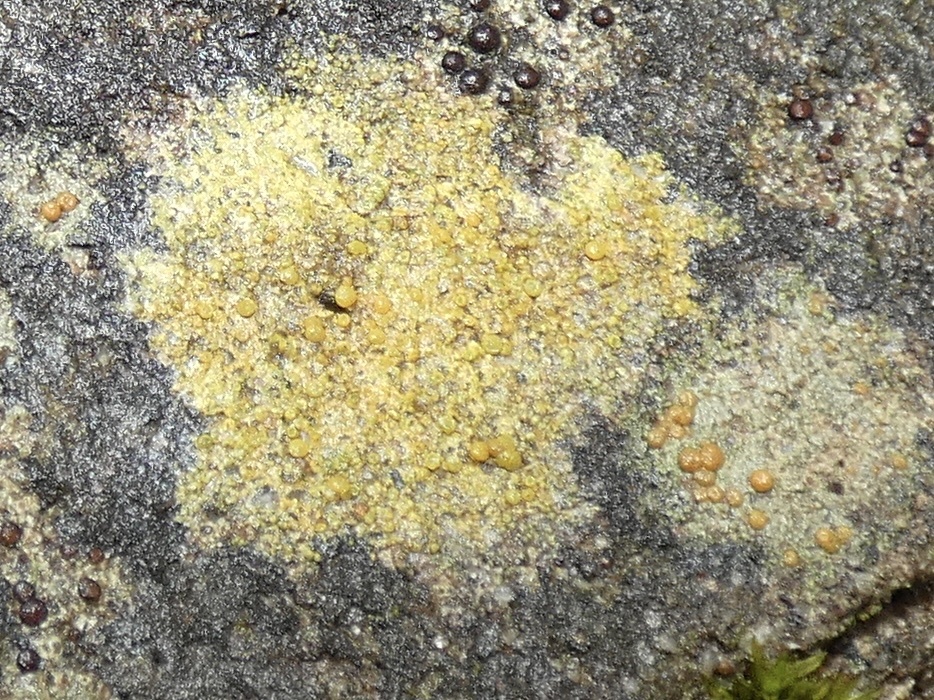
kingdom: Fungi
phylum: Ascomycota
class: Lecanoromycetes
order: Teloschistales
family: Teloschistaceae
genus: Gyalolechia
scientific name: Gyalolechia flavovirescens
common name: Sulphur firedot
